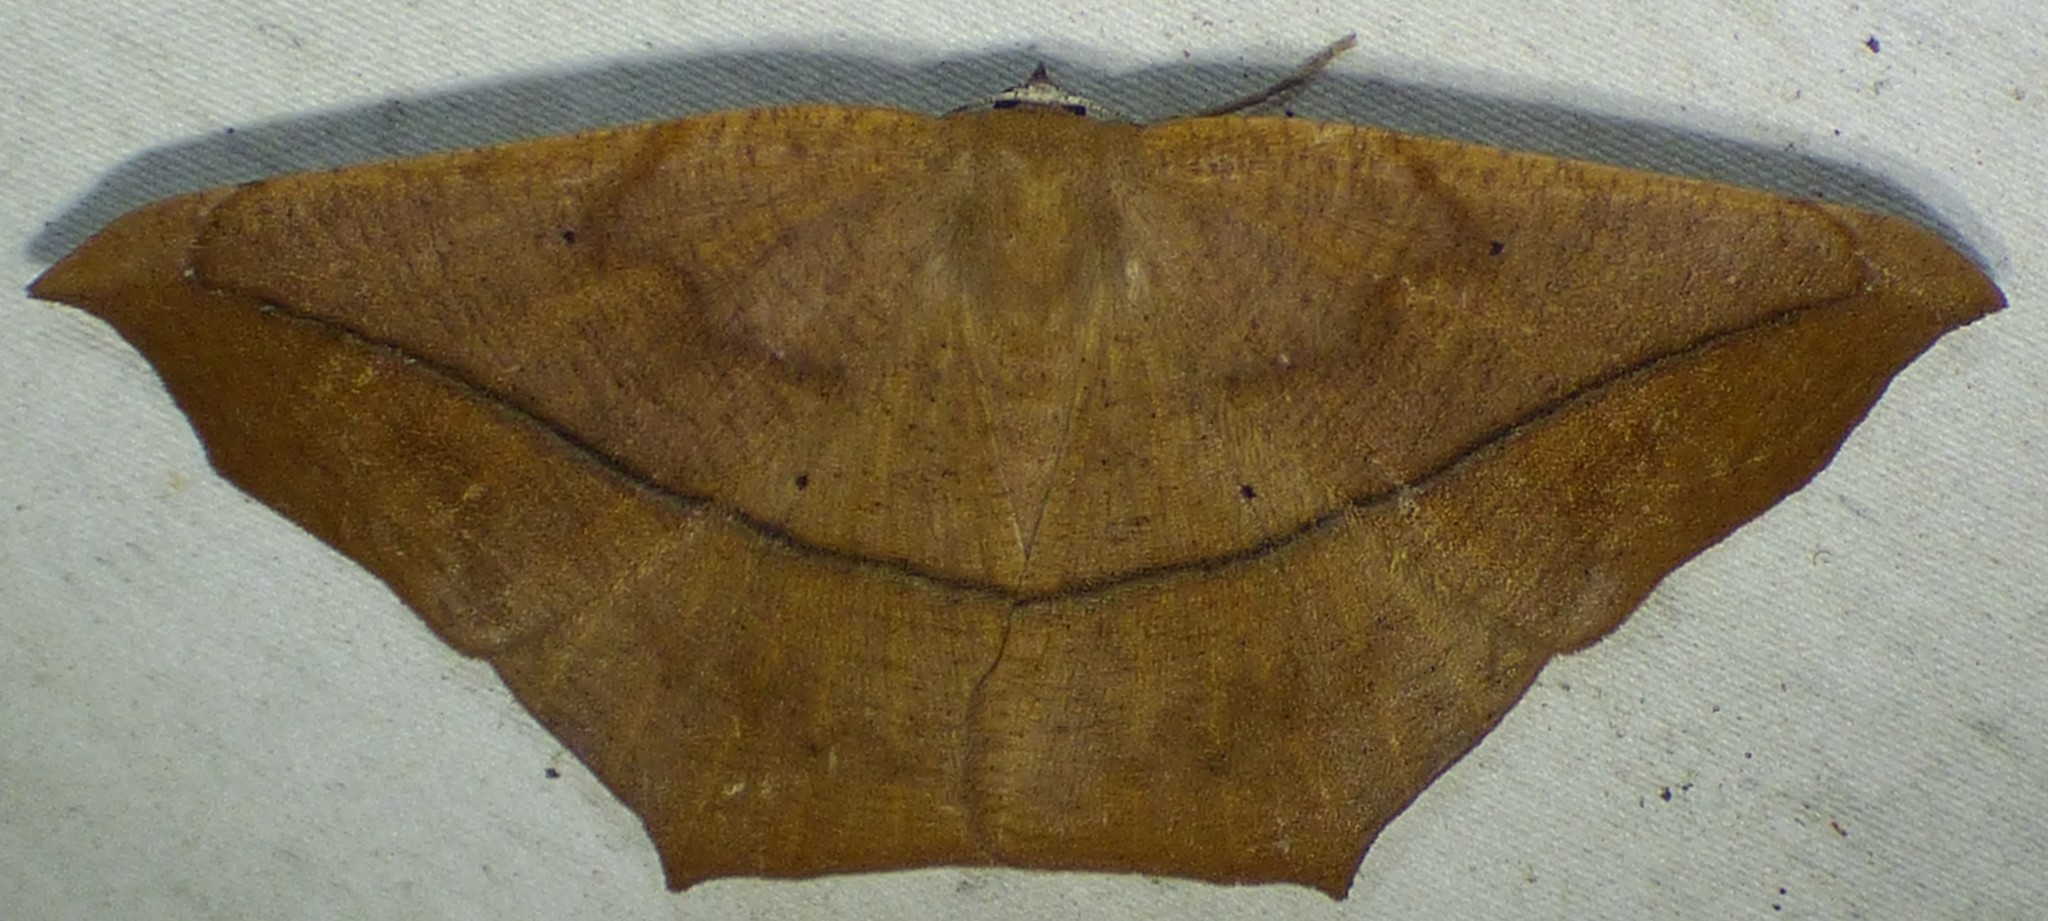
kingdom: Animalia
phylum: Arthropoda
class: Insecta
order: Lepidoptera
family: Geometridae
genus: Prochoerodes
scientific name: Prochoerodes lineola
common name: Large maple spanworm
